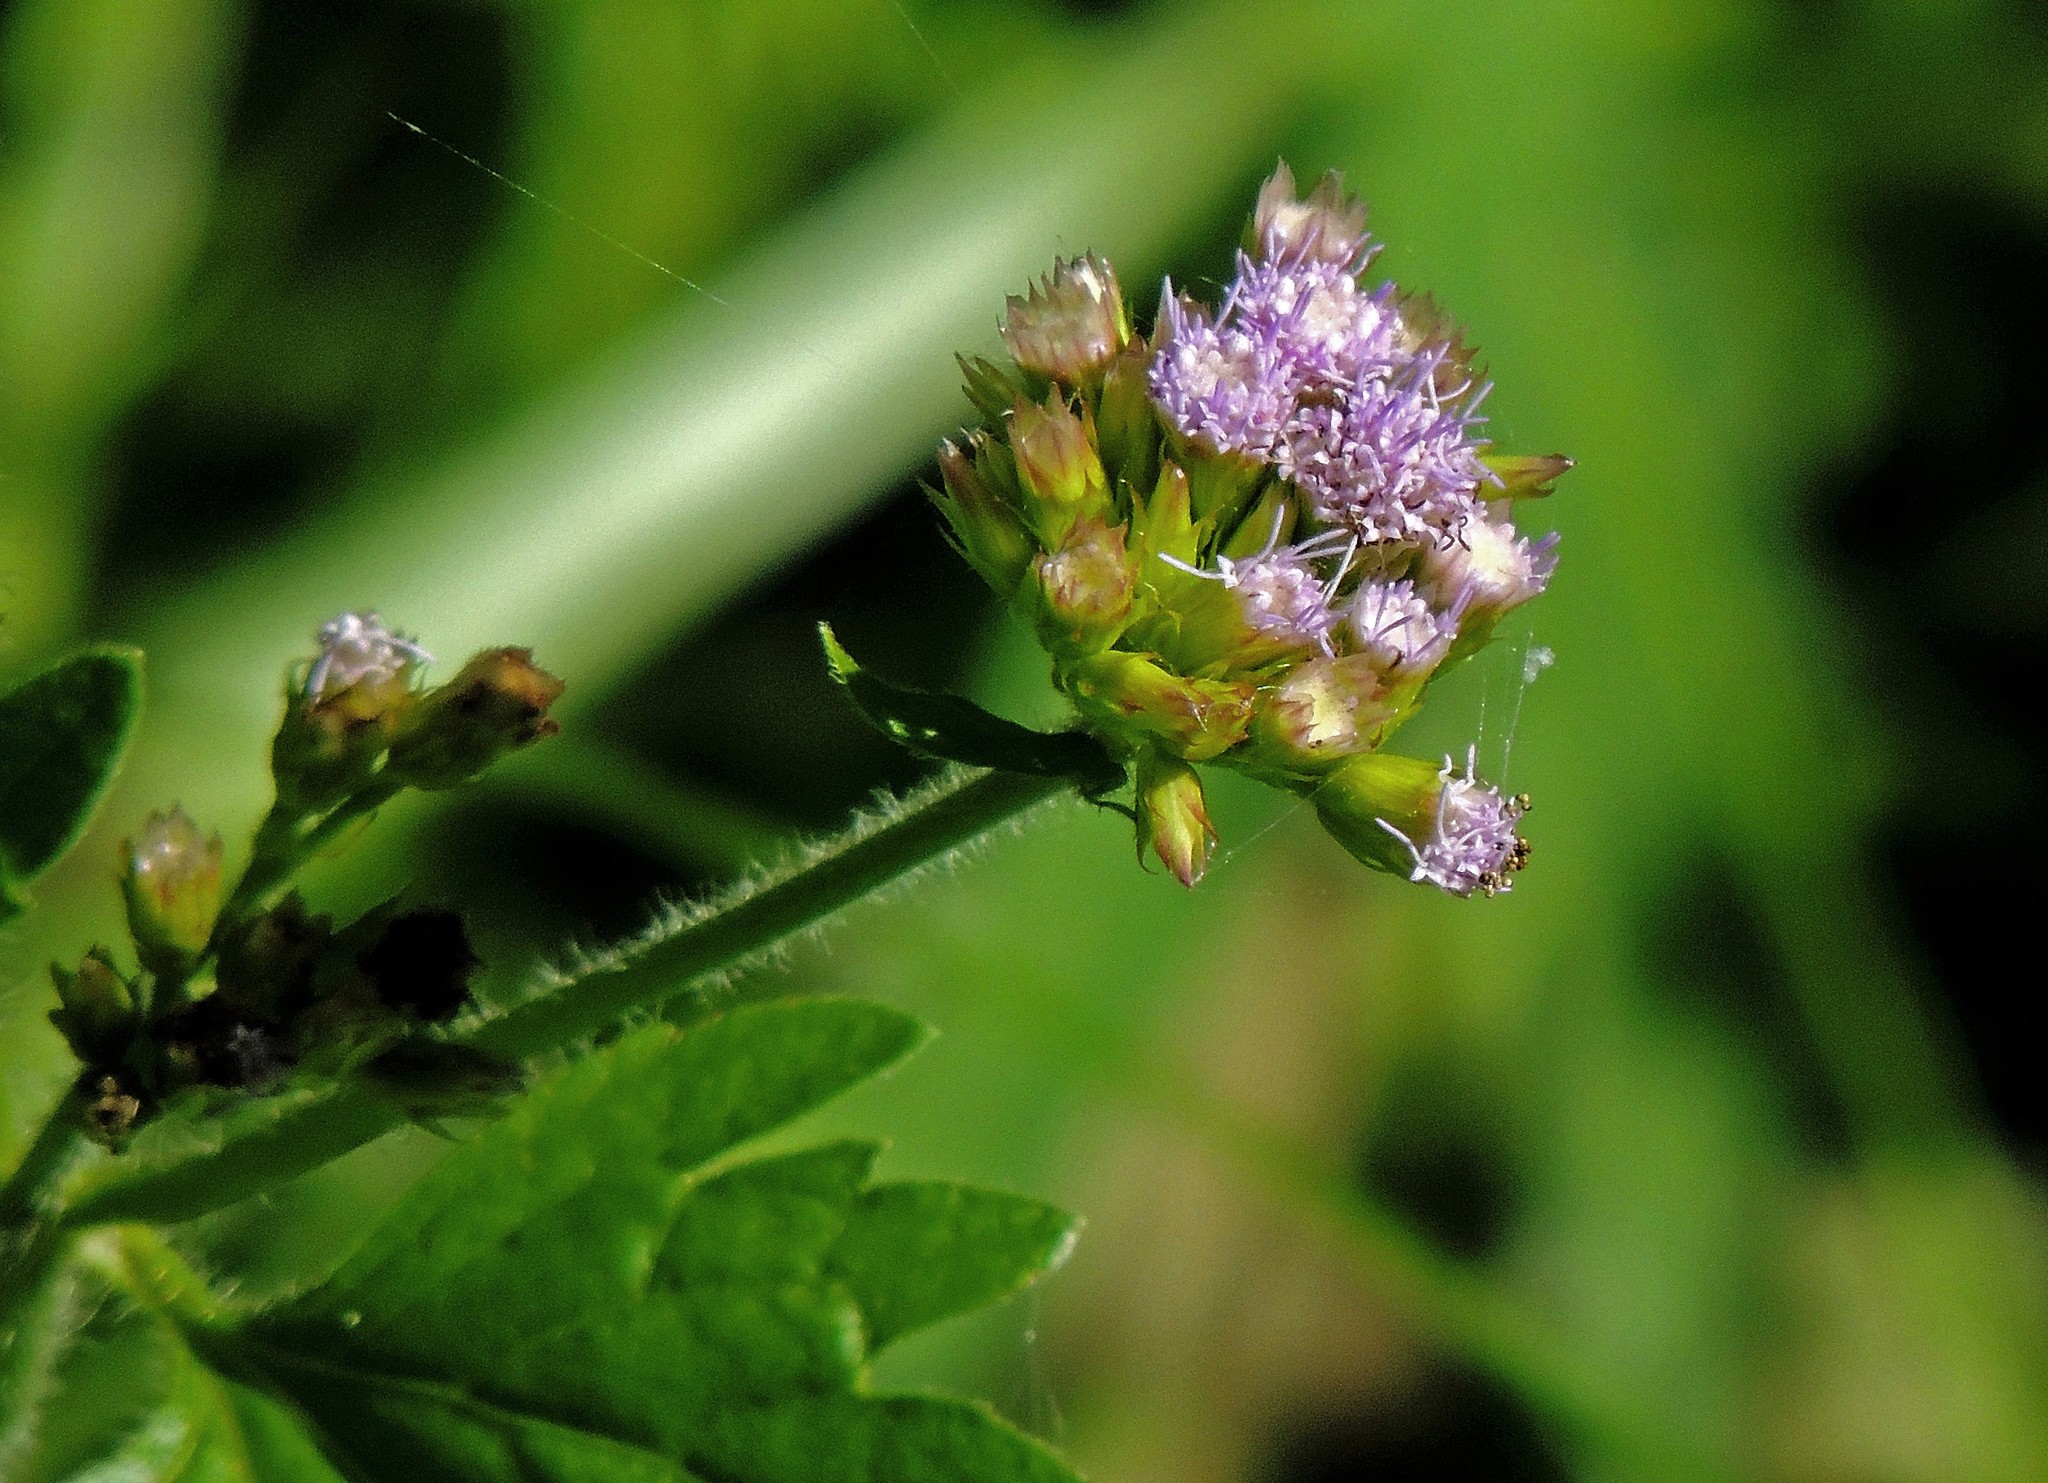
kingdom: Plantae
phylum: Tracheophyta
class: Magnoliopsida
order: Asterales
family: Asteraceae
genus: Praxelis
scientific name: Praxelis clematidea
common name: Praxelis
